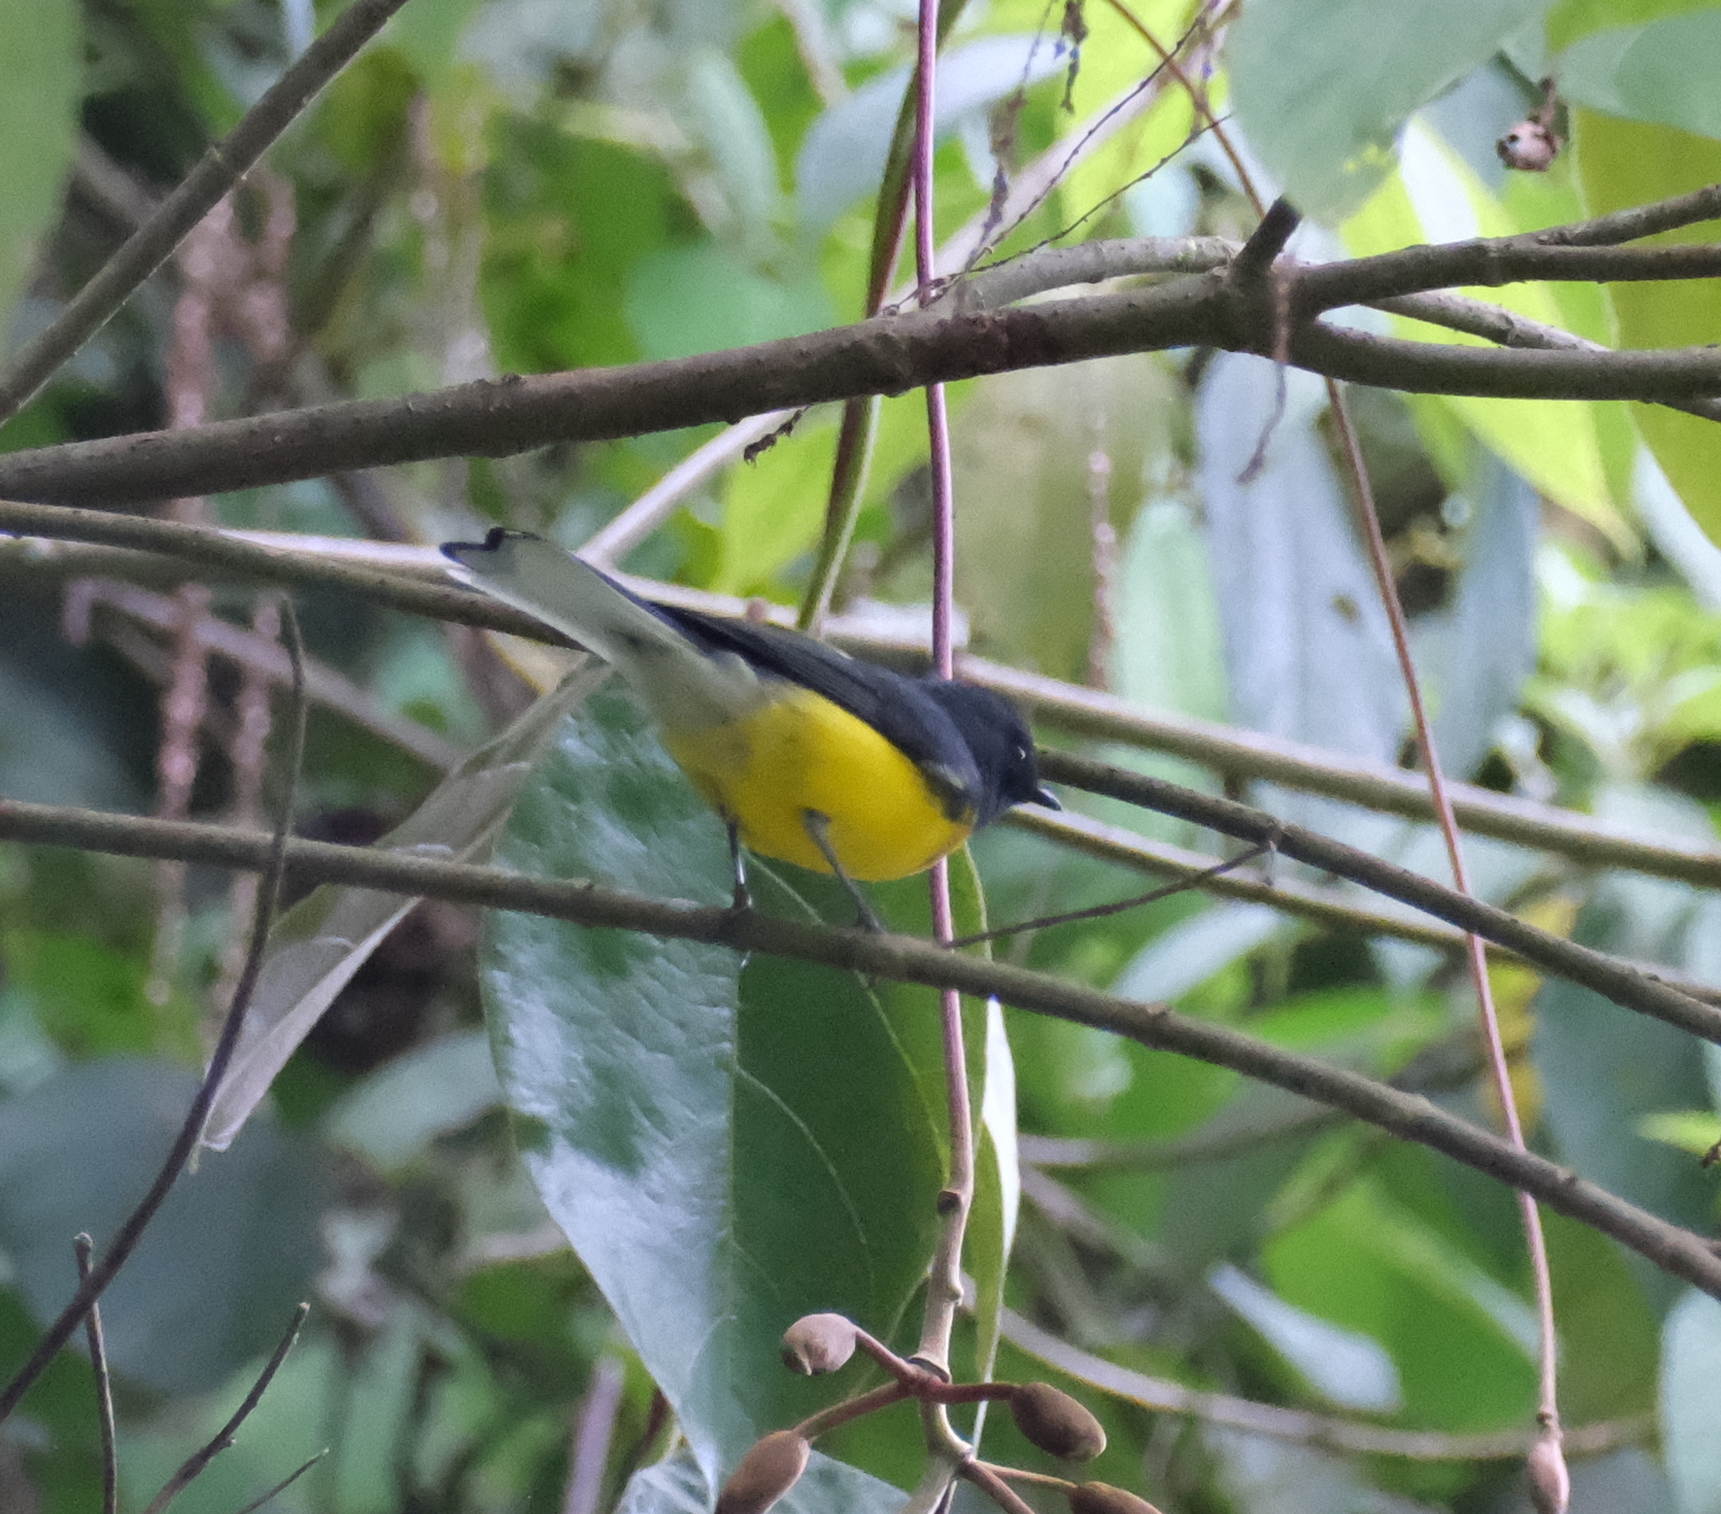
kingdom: Animalia
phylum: Chordata
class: Aves
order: Passeriformes
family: Parulidae
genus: Myioborus
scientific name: Myioborus miniatus
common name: Slate-throated redstart
